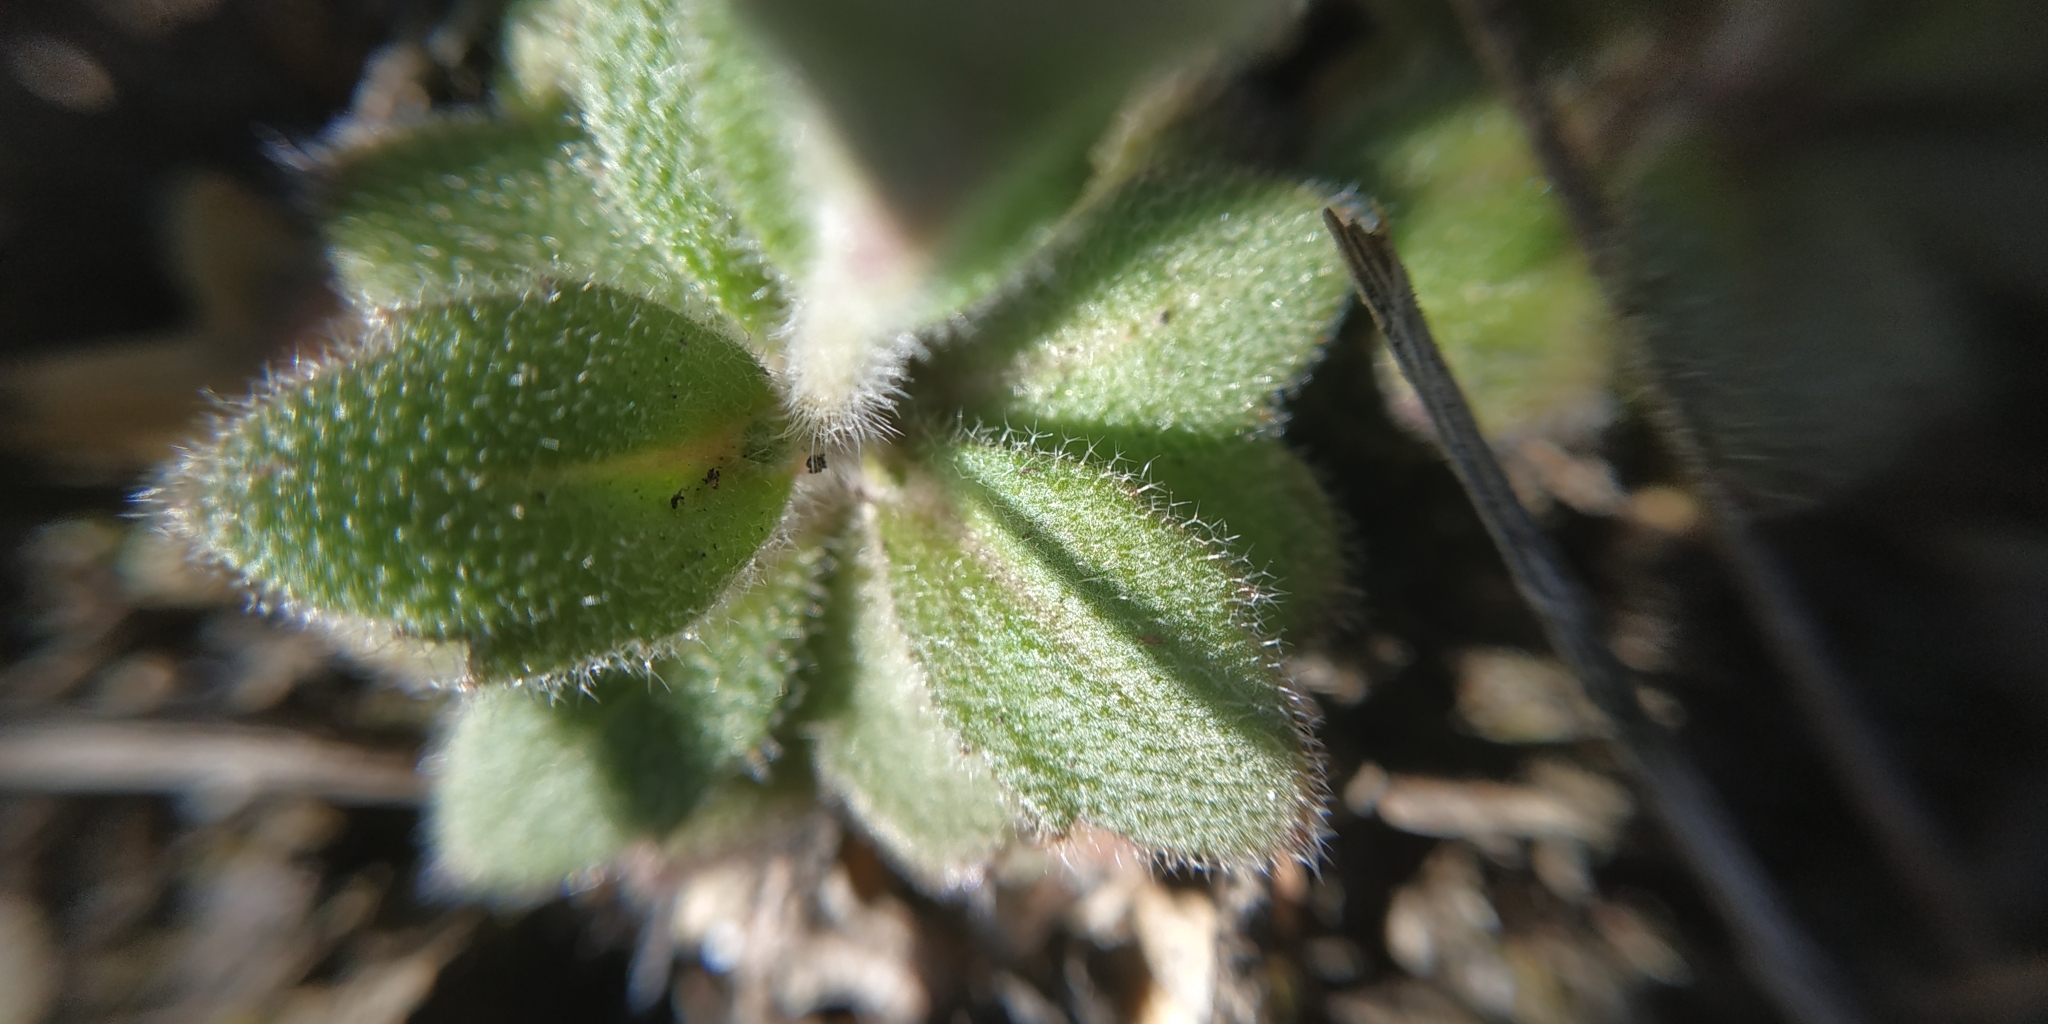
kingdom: Plantae
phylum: Tracheophyta
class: Magnoliopsida
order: Brassicales
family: Brassicaceae
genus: Draba
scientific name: Draba nemorosa
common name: Wood whitlow-grass
